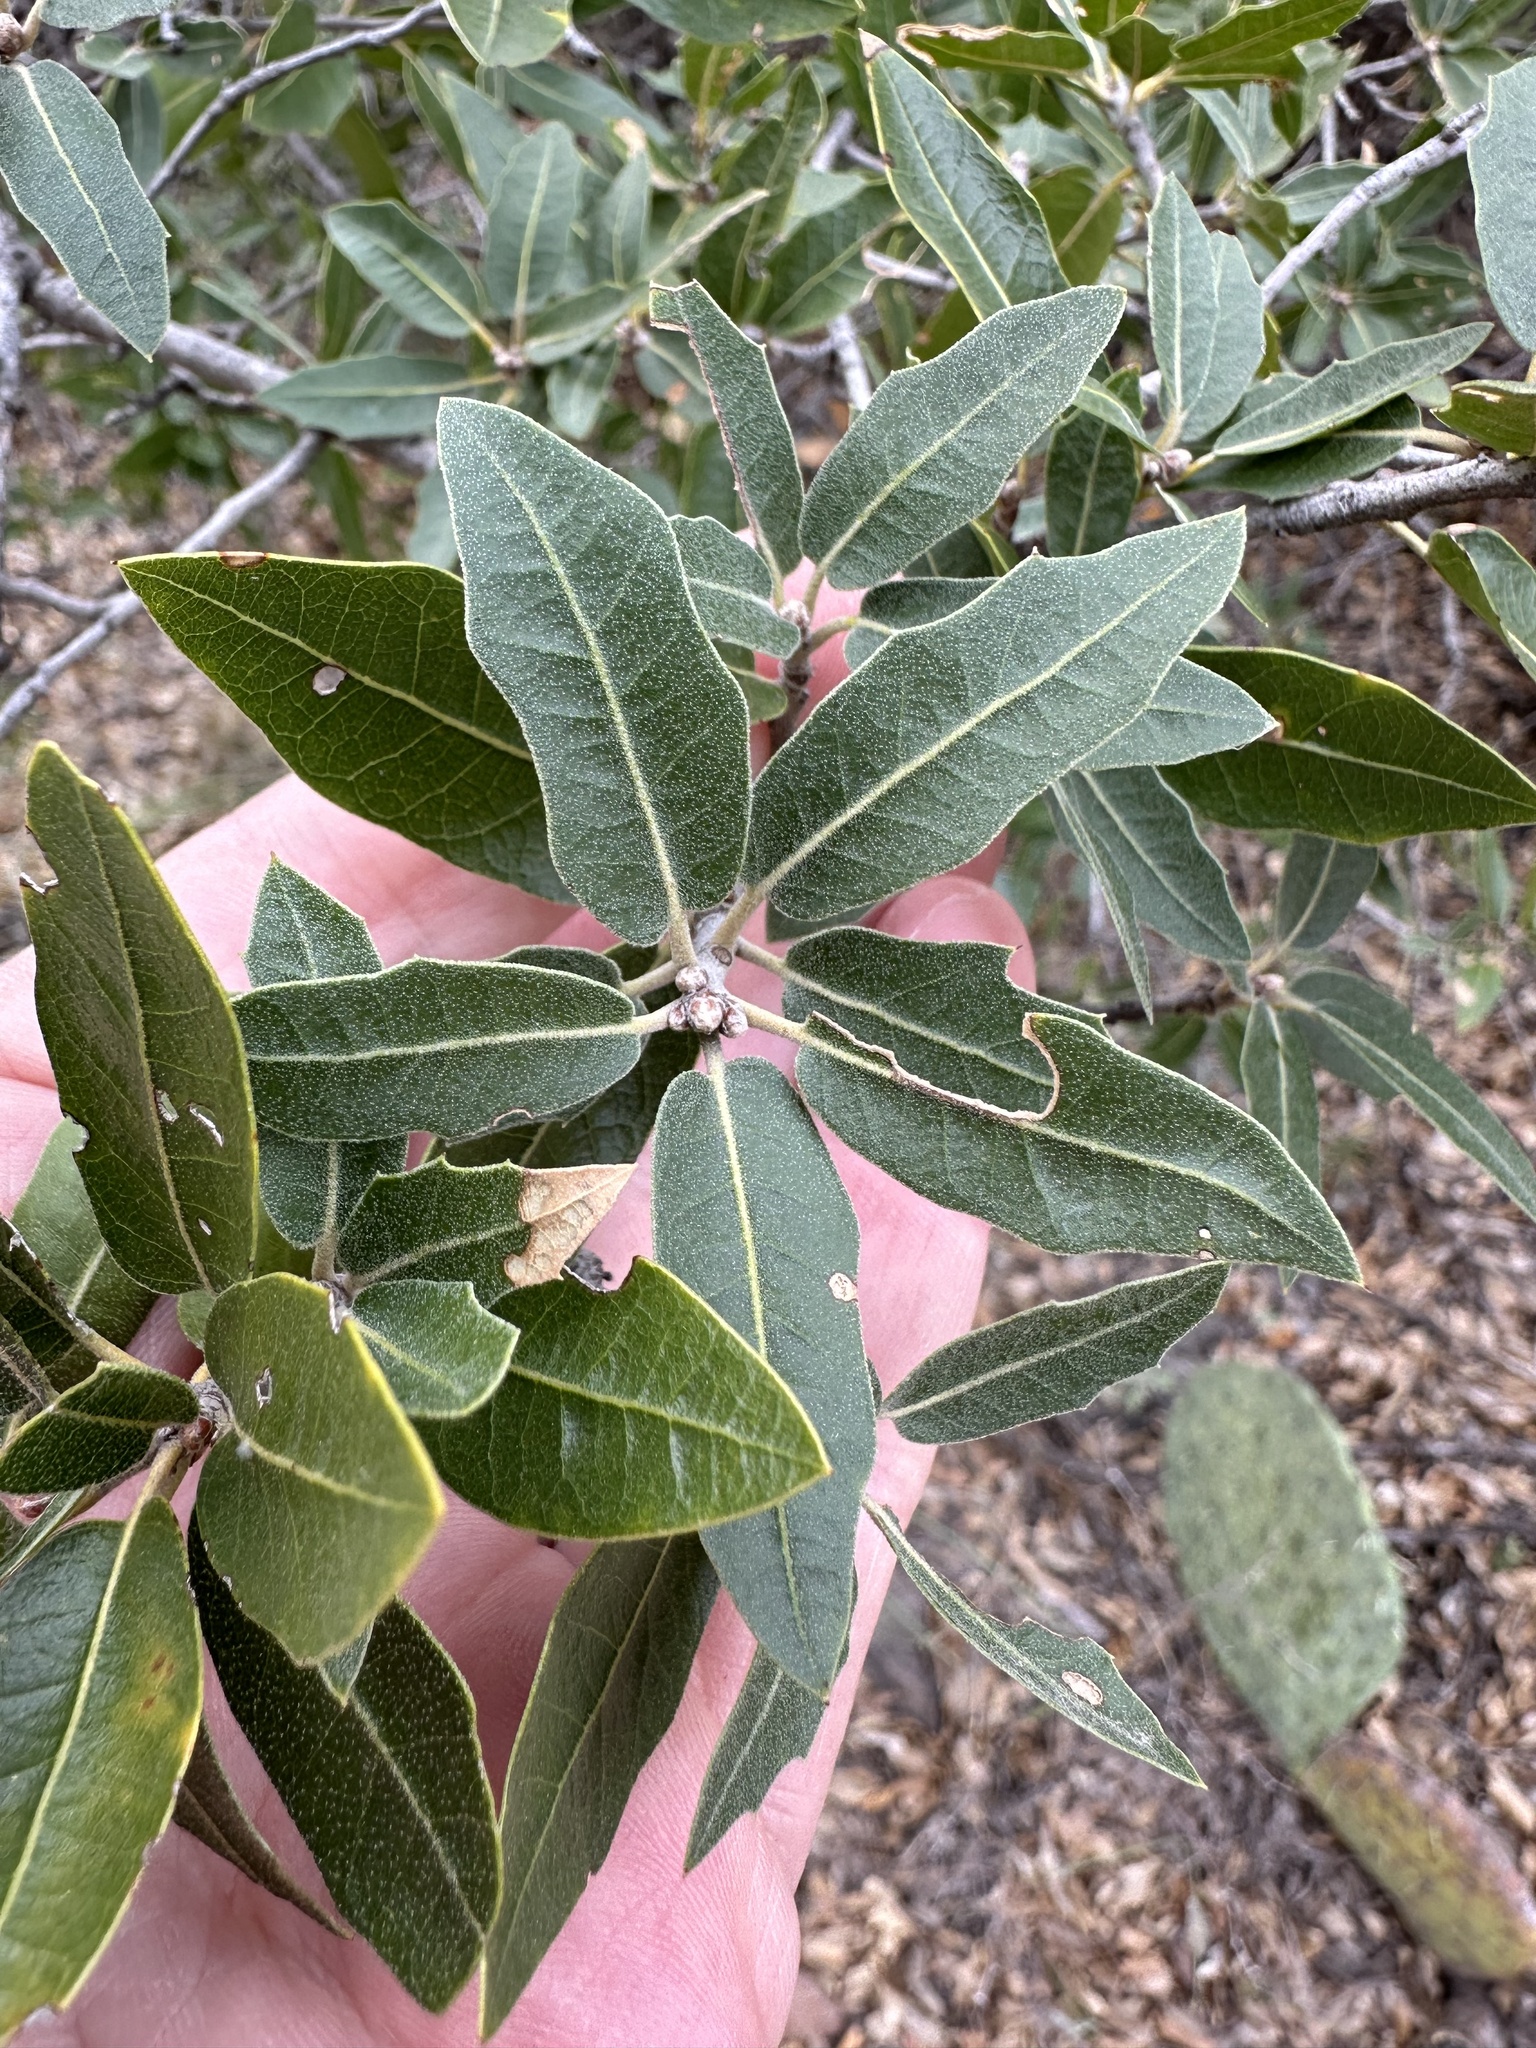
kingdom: Plantae
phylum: Tracheophyta
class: Magnoliopsida
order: Fagales
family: Fagaceae
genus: Quercus
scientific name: Quercus emoryi
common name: Emory oak
